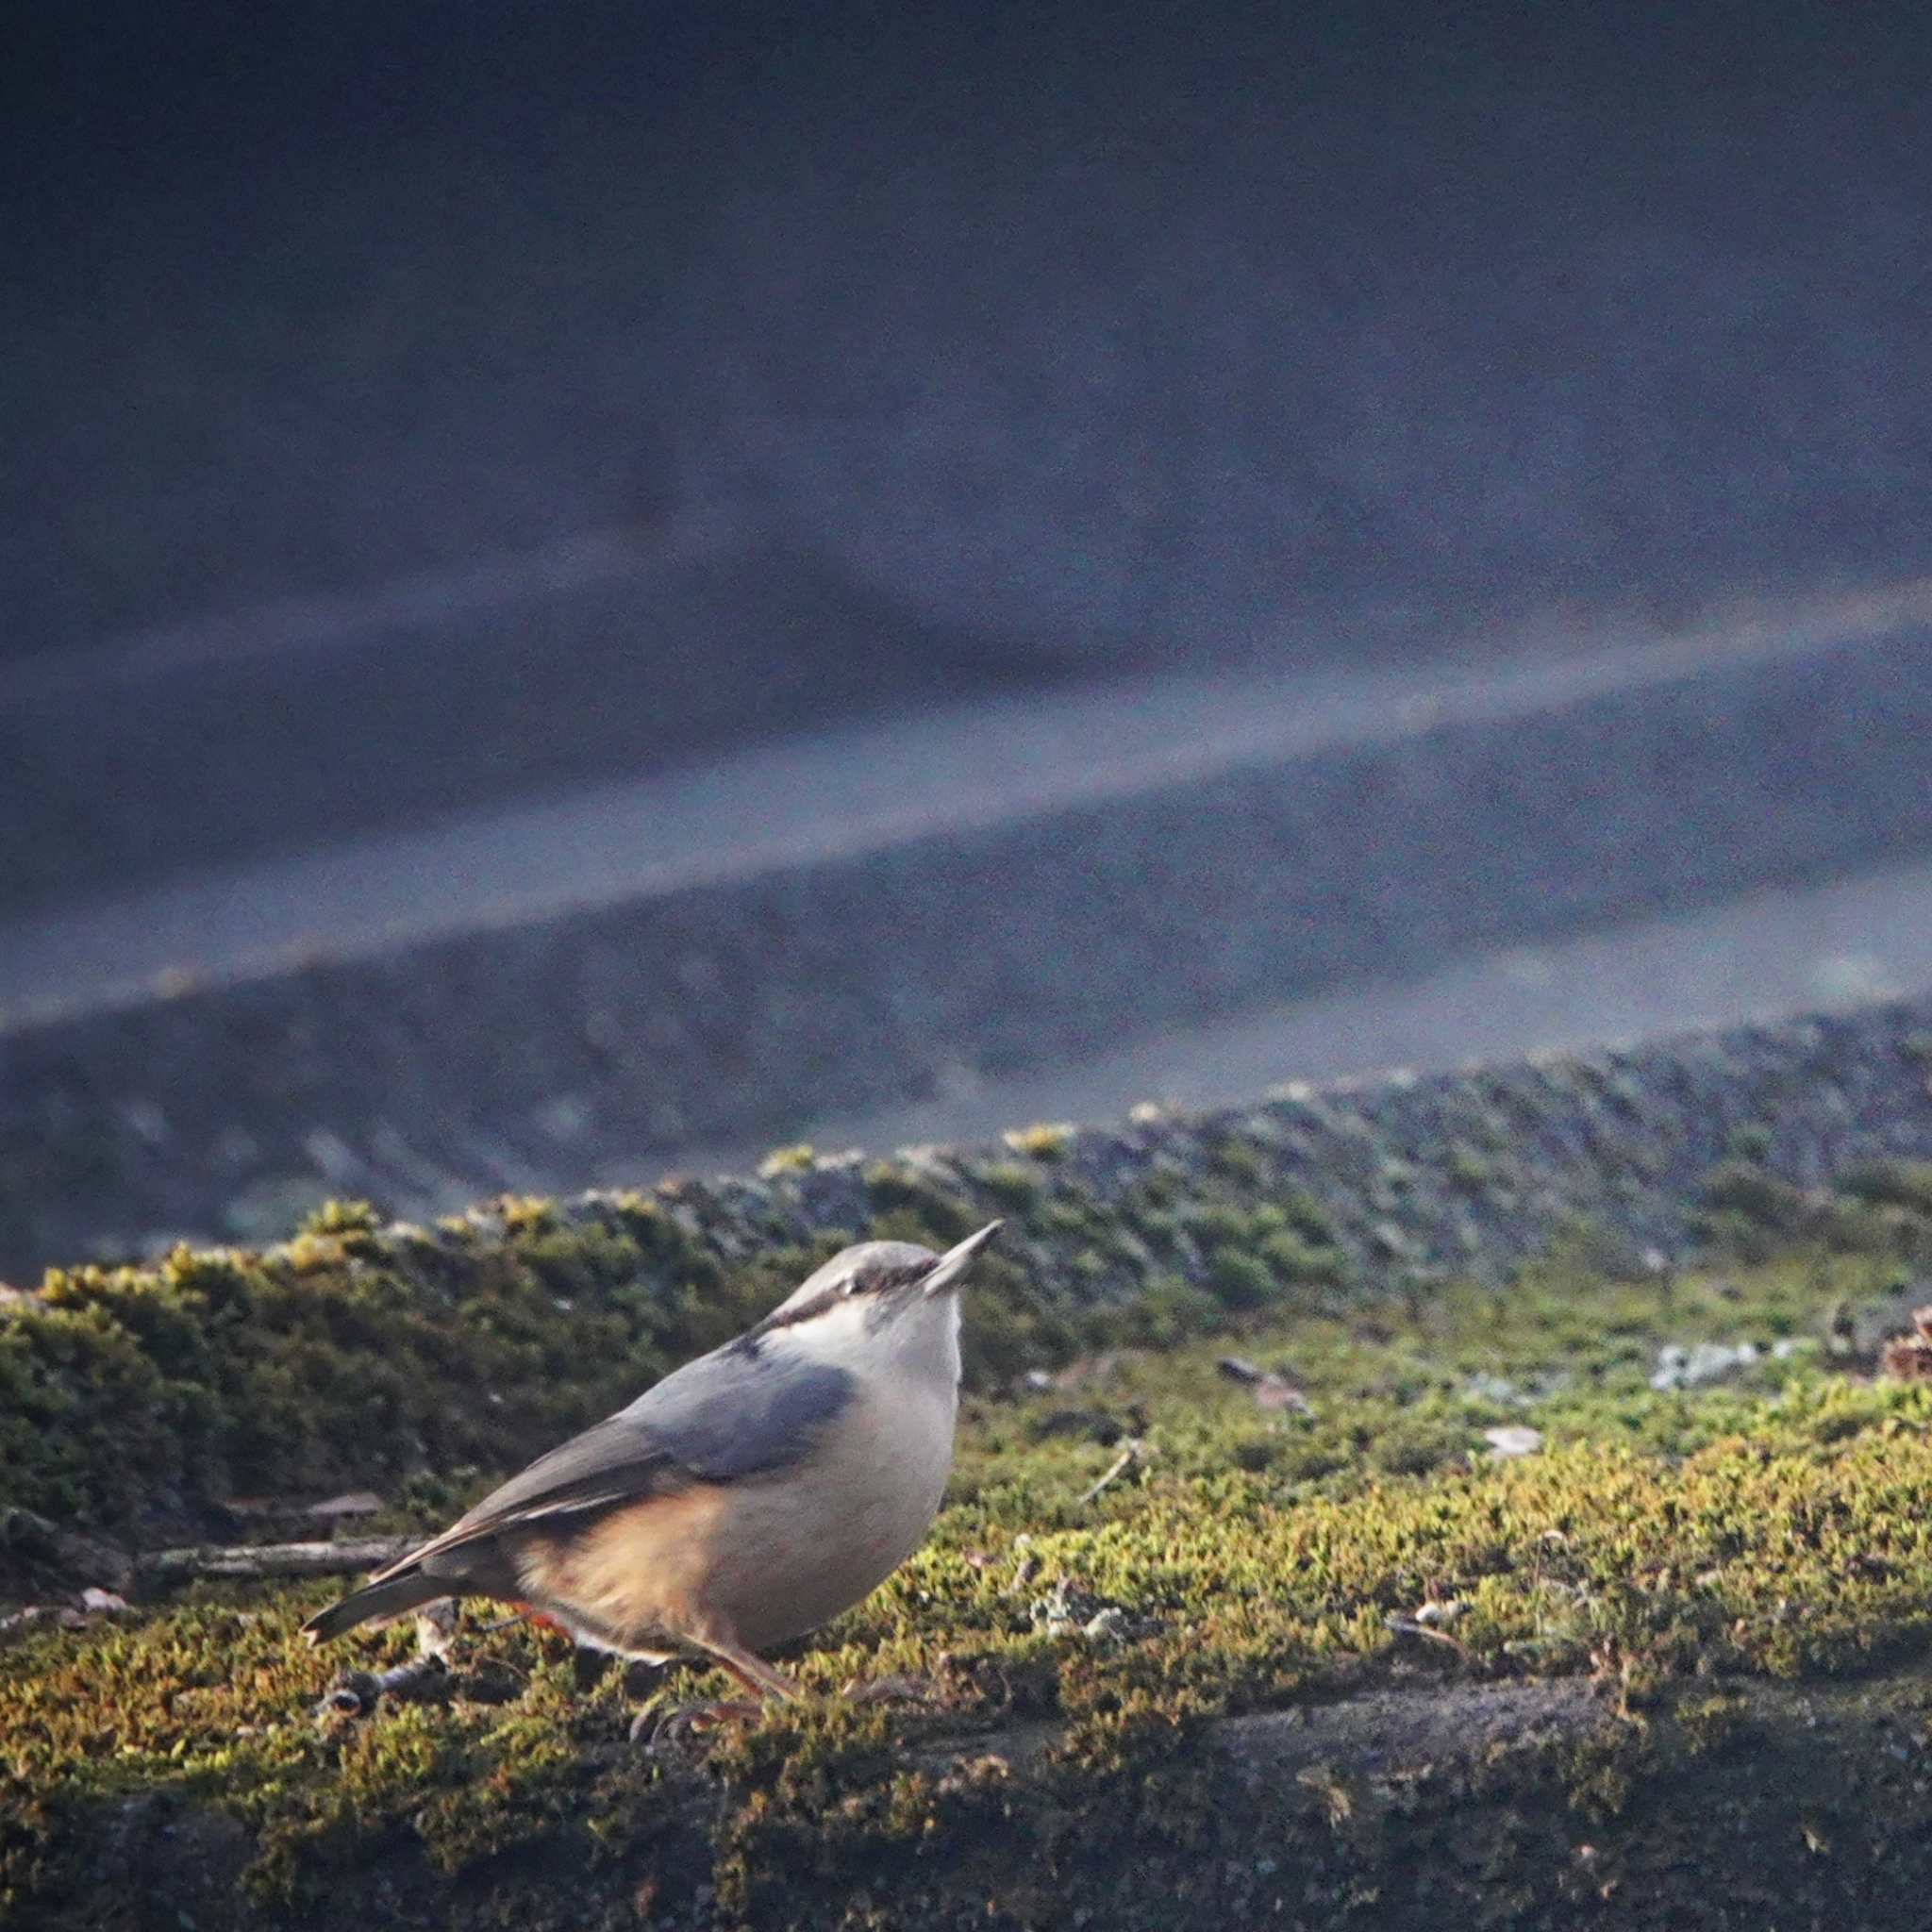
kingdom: Animalia
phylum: Chordata
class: Aves
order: Passeriformes
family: Sittidae
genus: Sitta
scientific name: Sitta europaea
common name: Eurasian nuthatch
